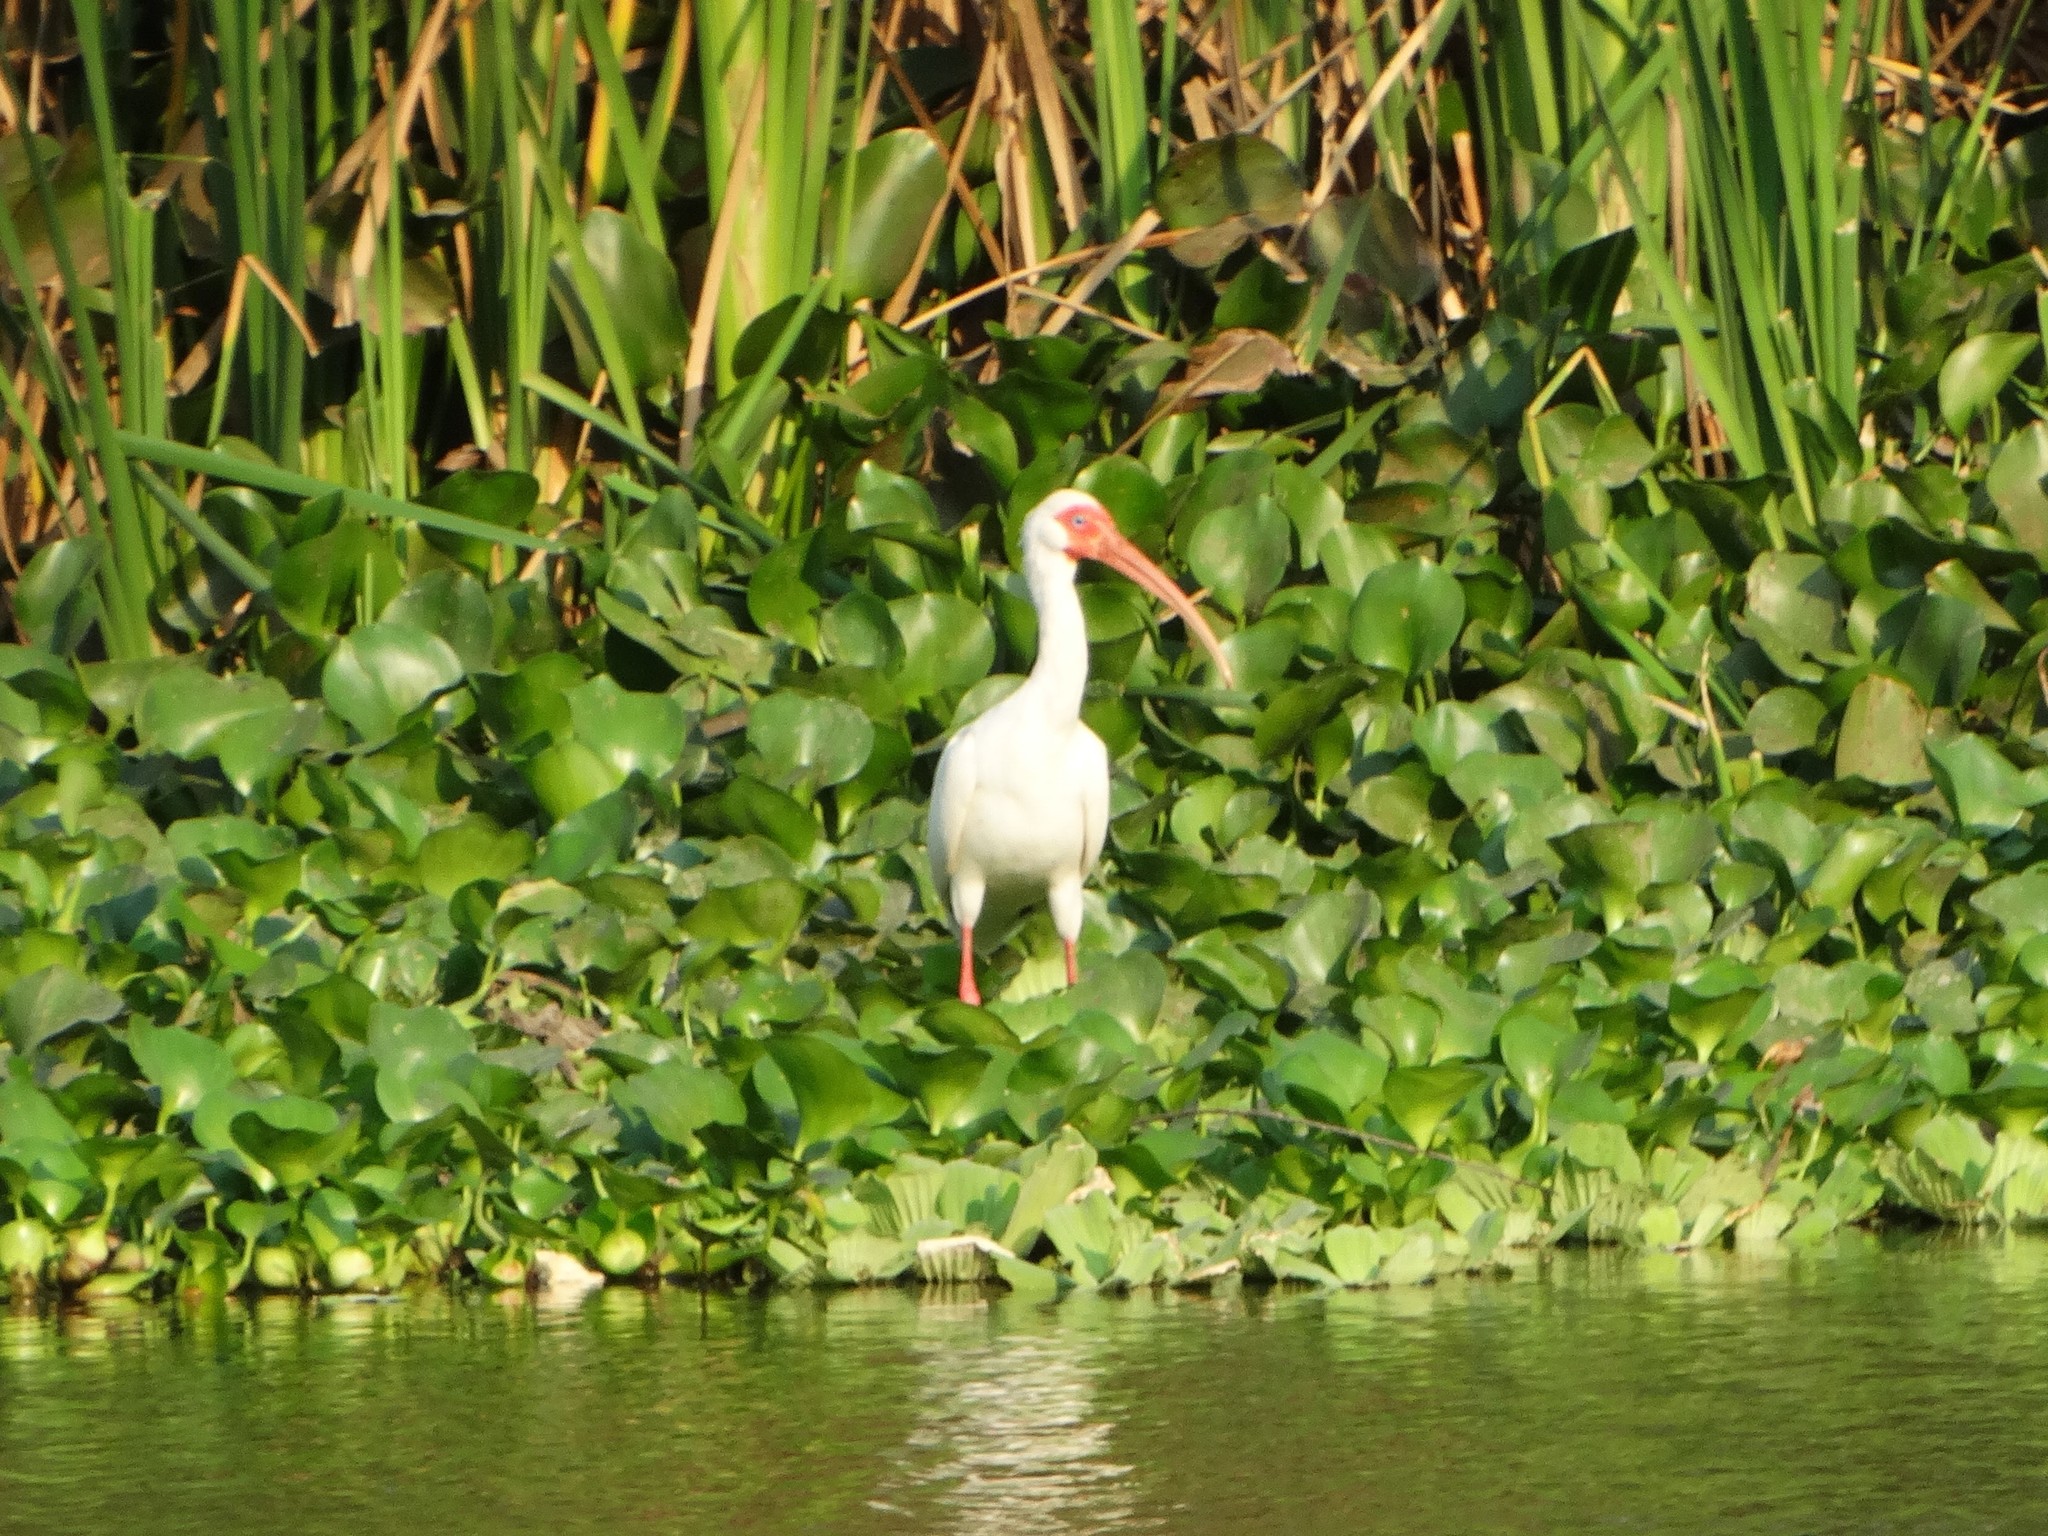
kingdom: Animalia
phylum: Chordata
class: Aves
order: Pelecaniformes
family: Threskiornithidae
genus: Eudocimus
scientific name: Eudocimus albus
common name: White ibis
